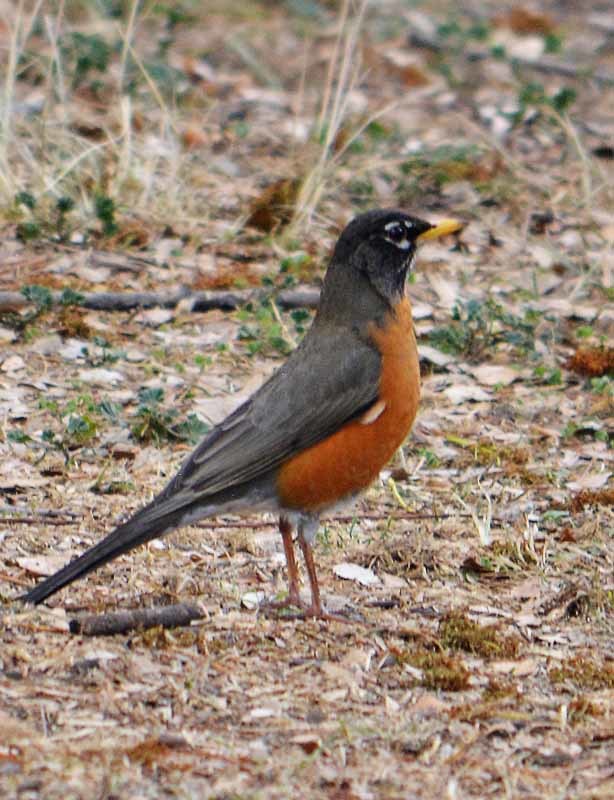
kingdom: Animalia
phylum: Chordata
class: Aves
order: Passeriformes
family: Turdidae
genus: Turdus
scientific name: Turdus migratorius
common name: American robin
